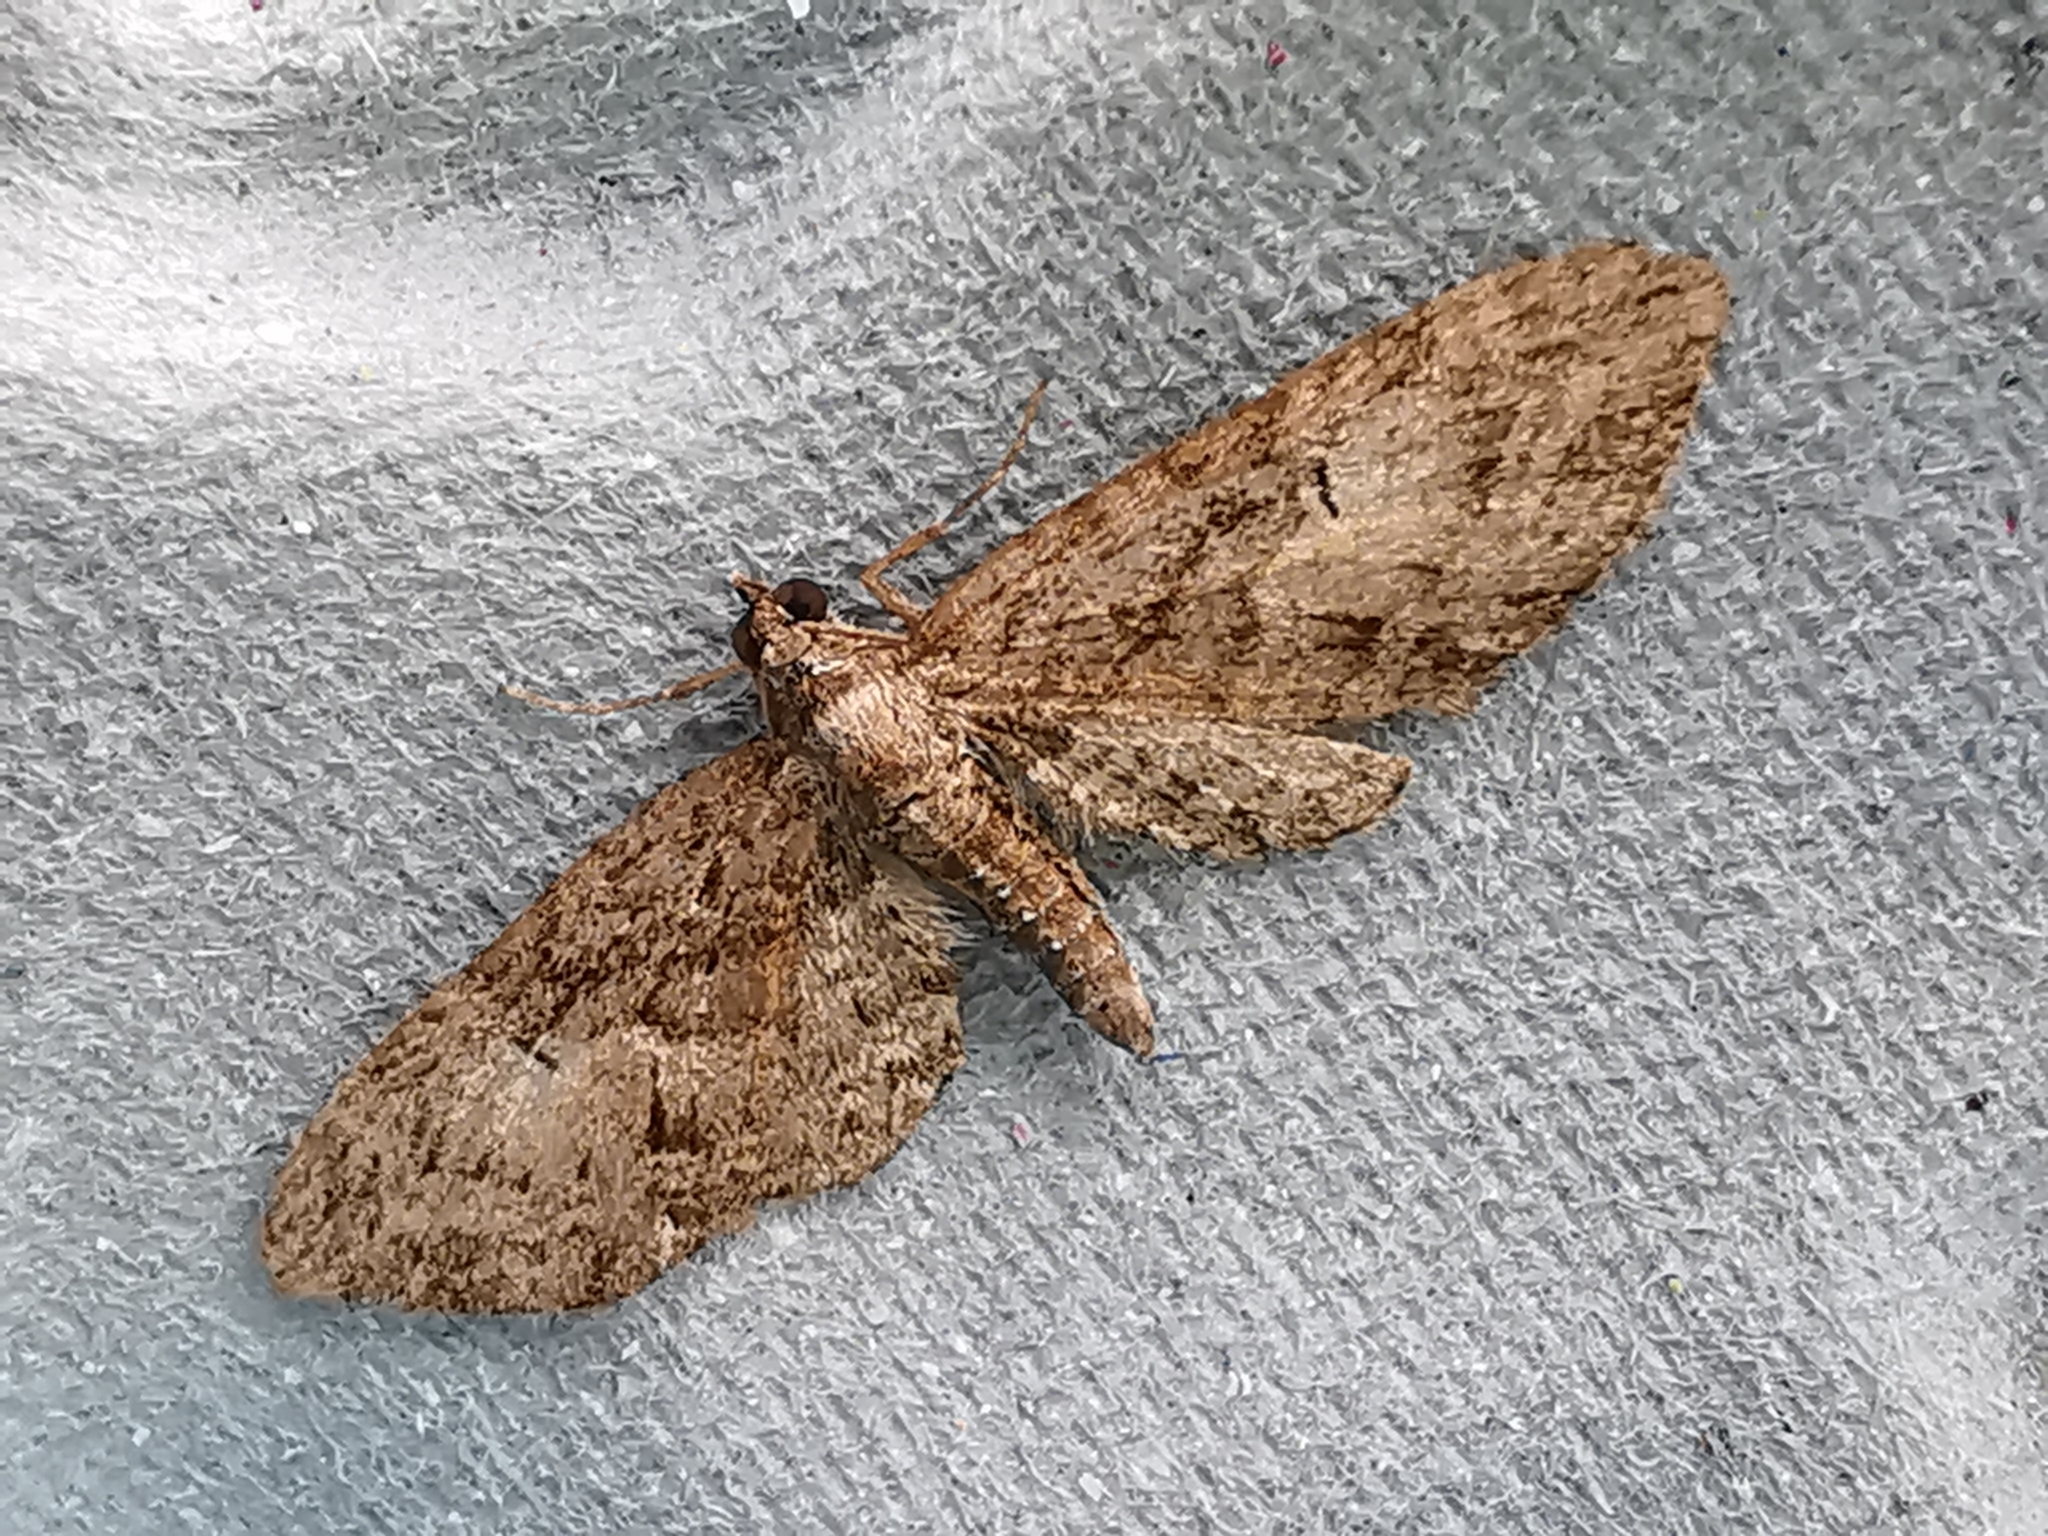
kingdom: Animalia
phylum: Arthropoda
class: Insecta
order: Lepidoptera
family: Geometridae
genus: Eupithecia
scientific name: Eupithecia abbreviata
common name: Brindled pug
